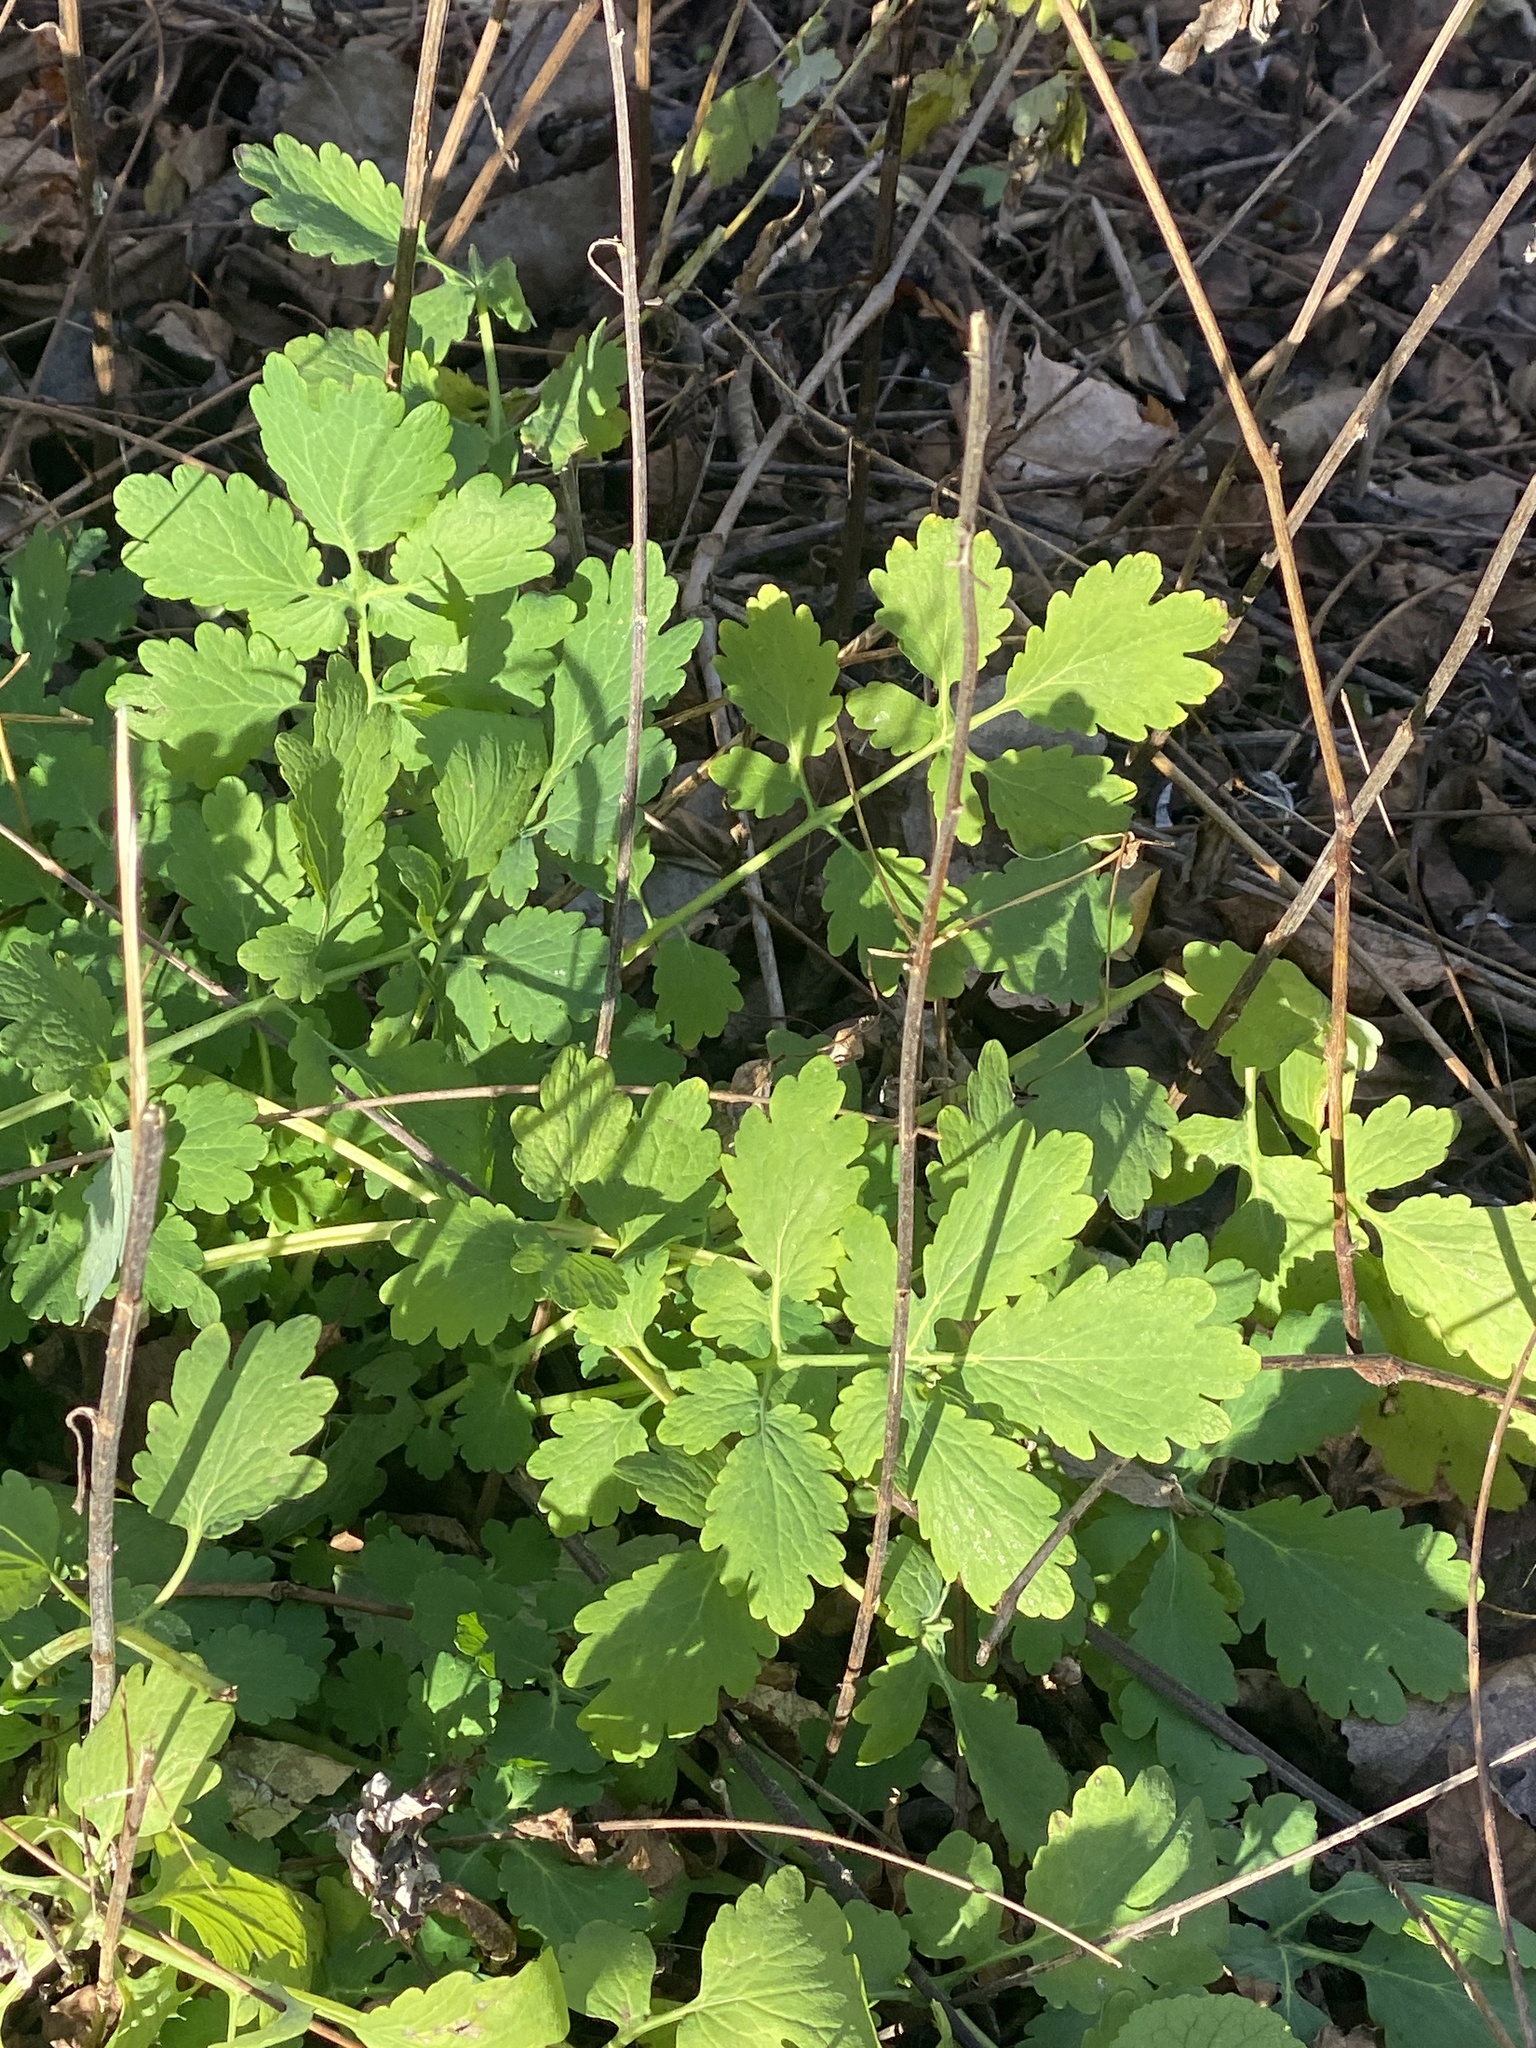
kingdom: Plantae
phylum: Tracheophyta
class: Magnoliopsida
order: Ranunculales
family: Papaveraceae
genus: Chelidonium
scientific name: Chelidonium majus
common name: Greater celandine
